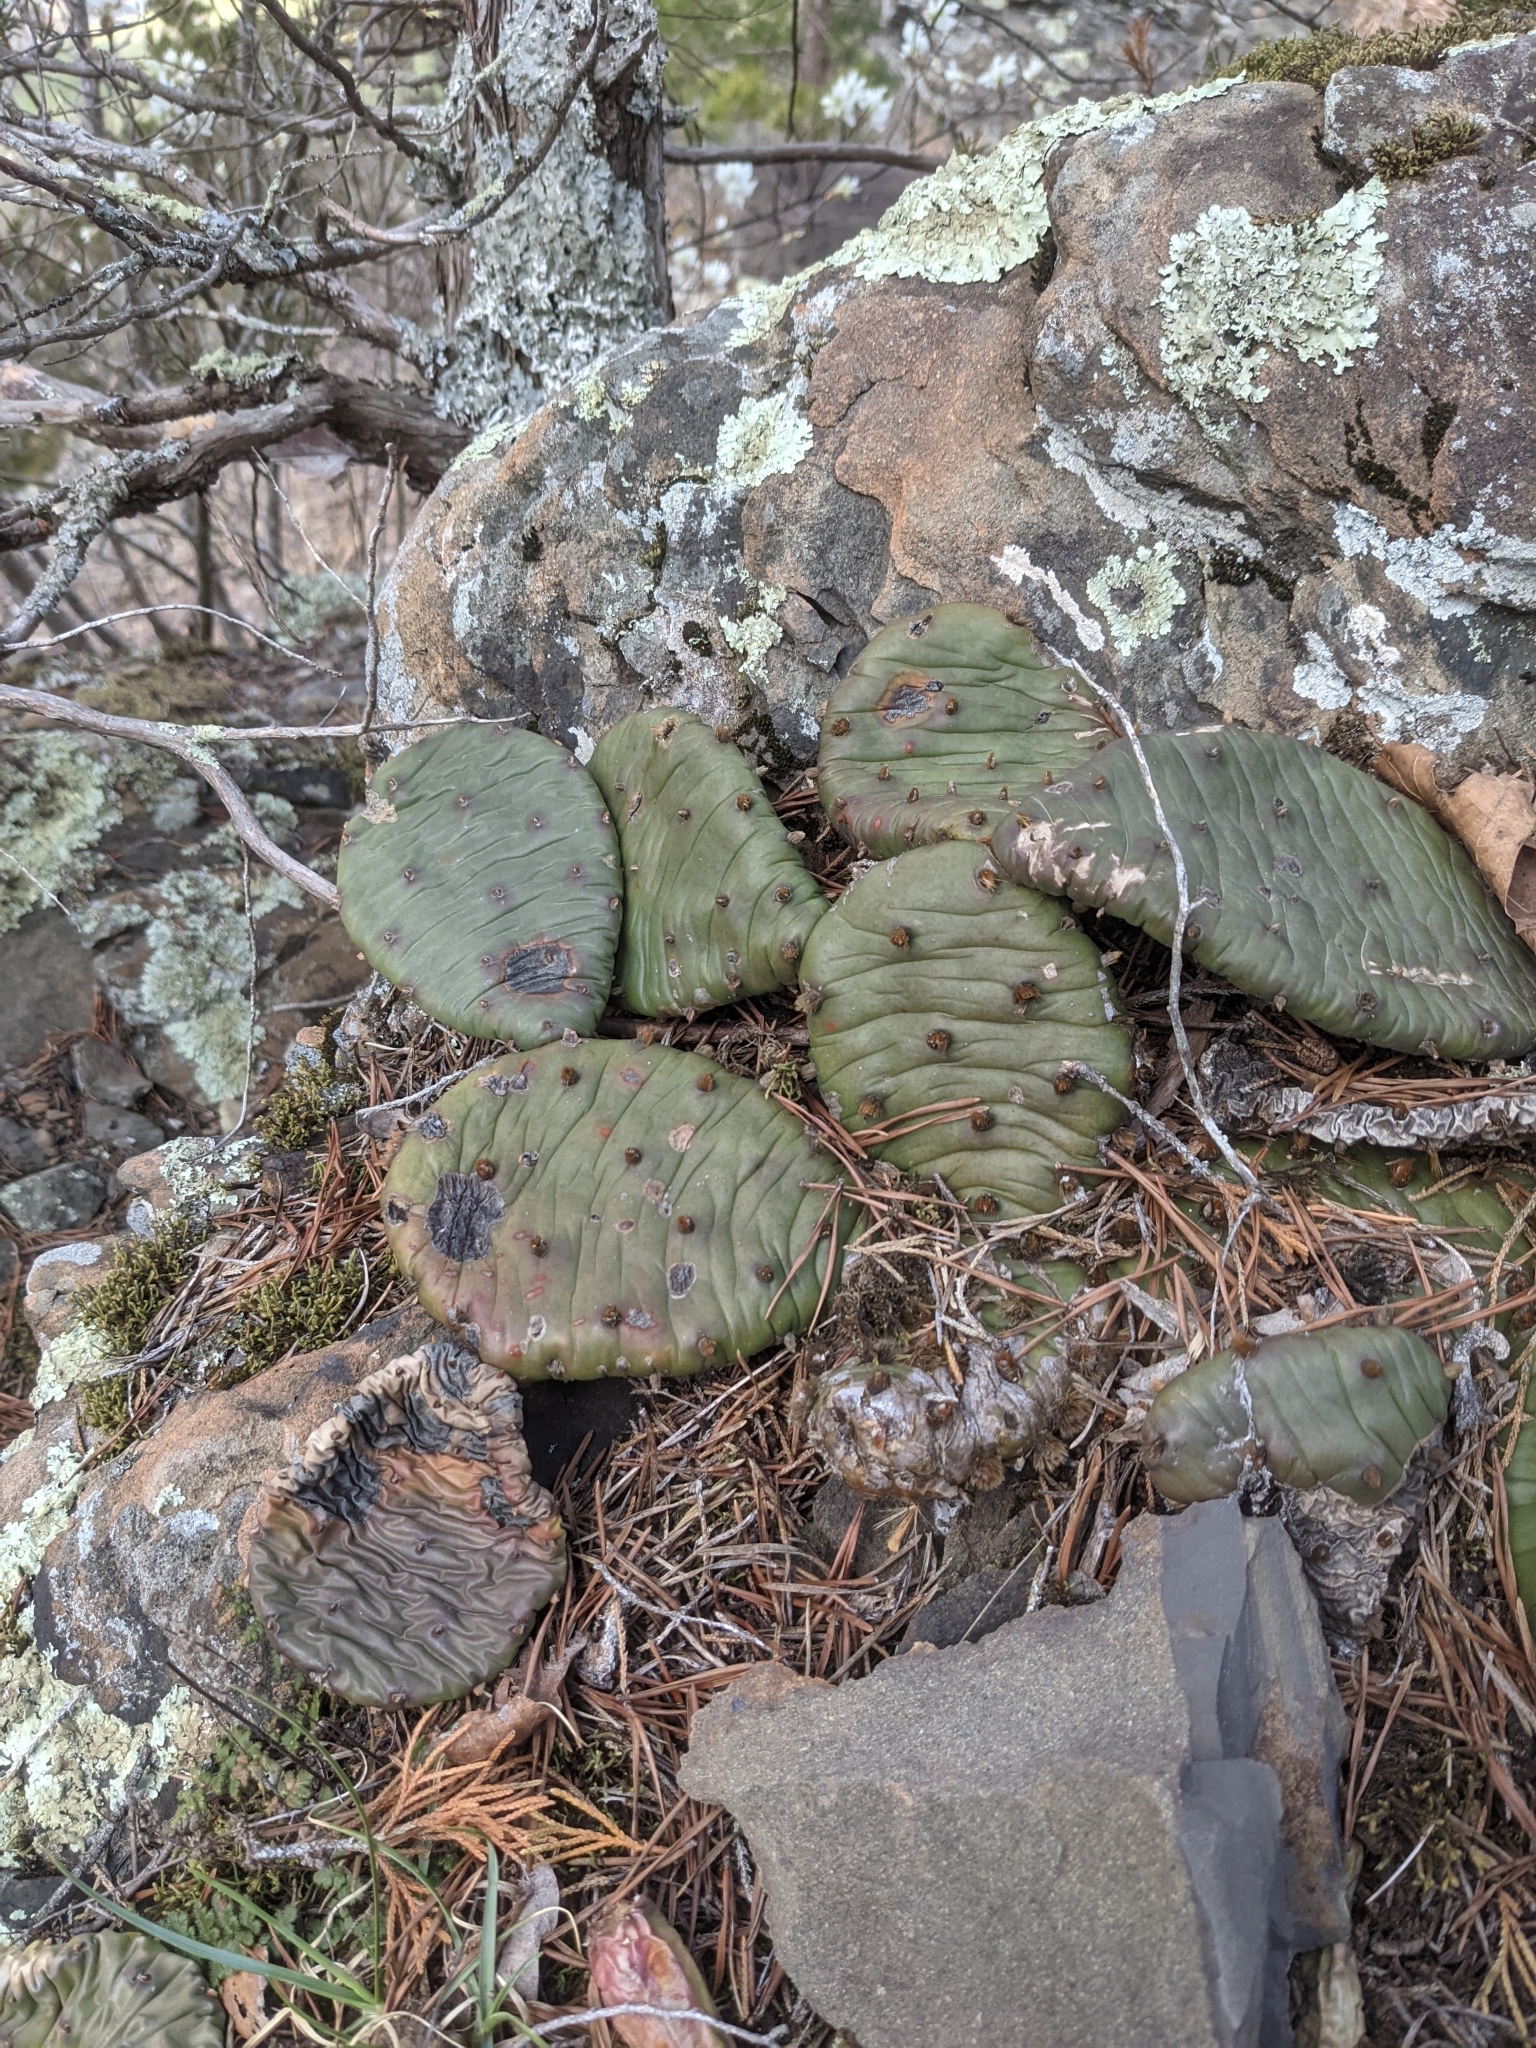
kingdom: Plantae
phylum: Tracheophyta
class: Magnoliopsida
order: Caryophyllales
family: Cactaceae
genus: Opuntia
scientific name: Opuntia humifusa
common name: Eastern prickly-pear
